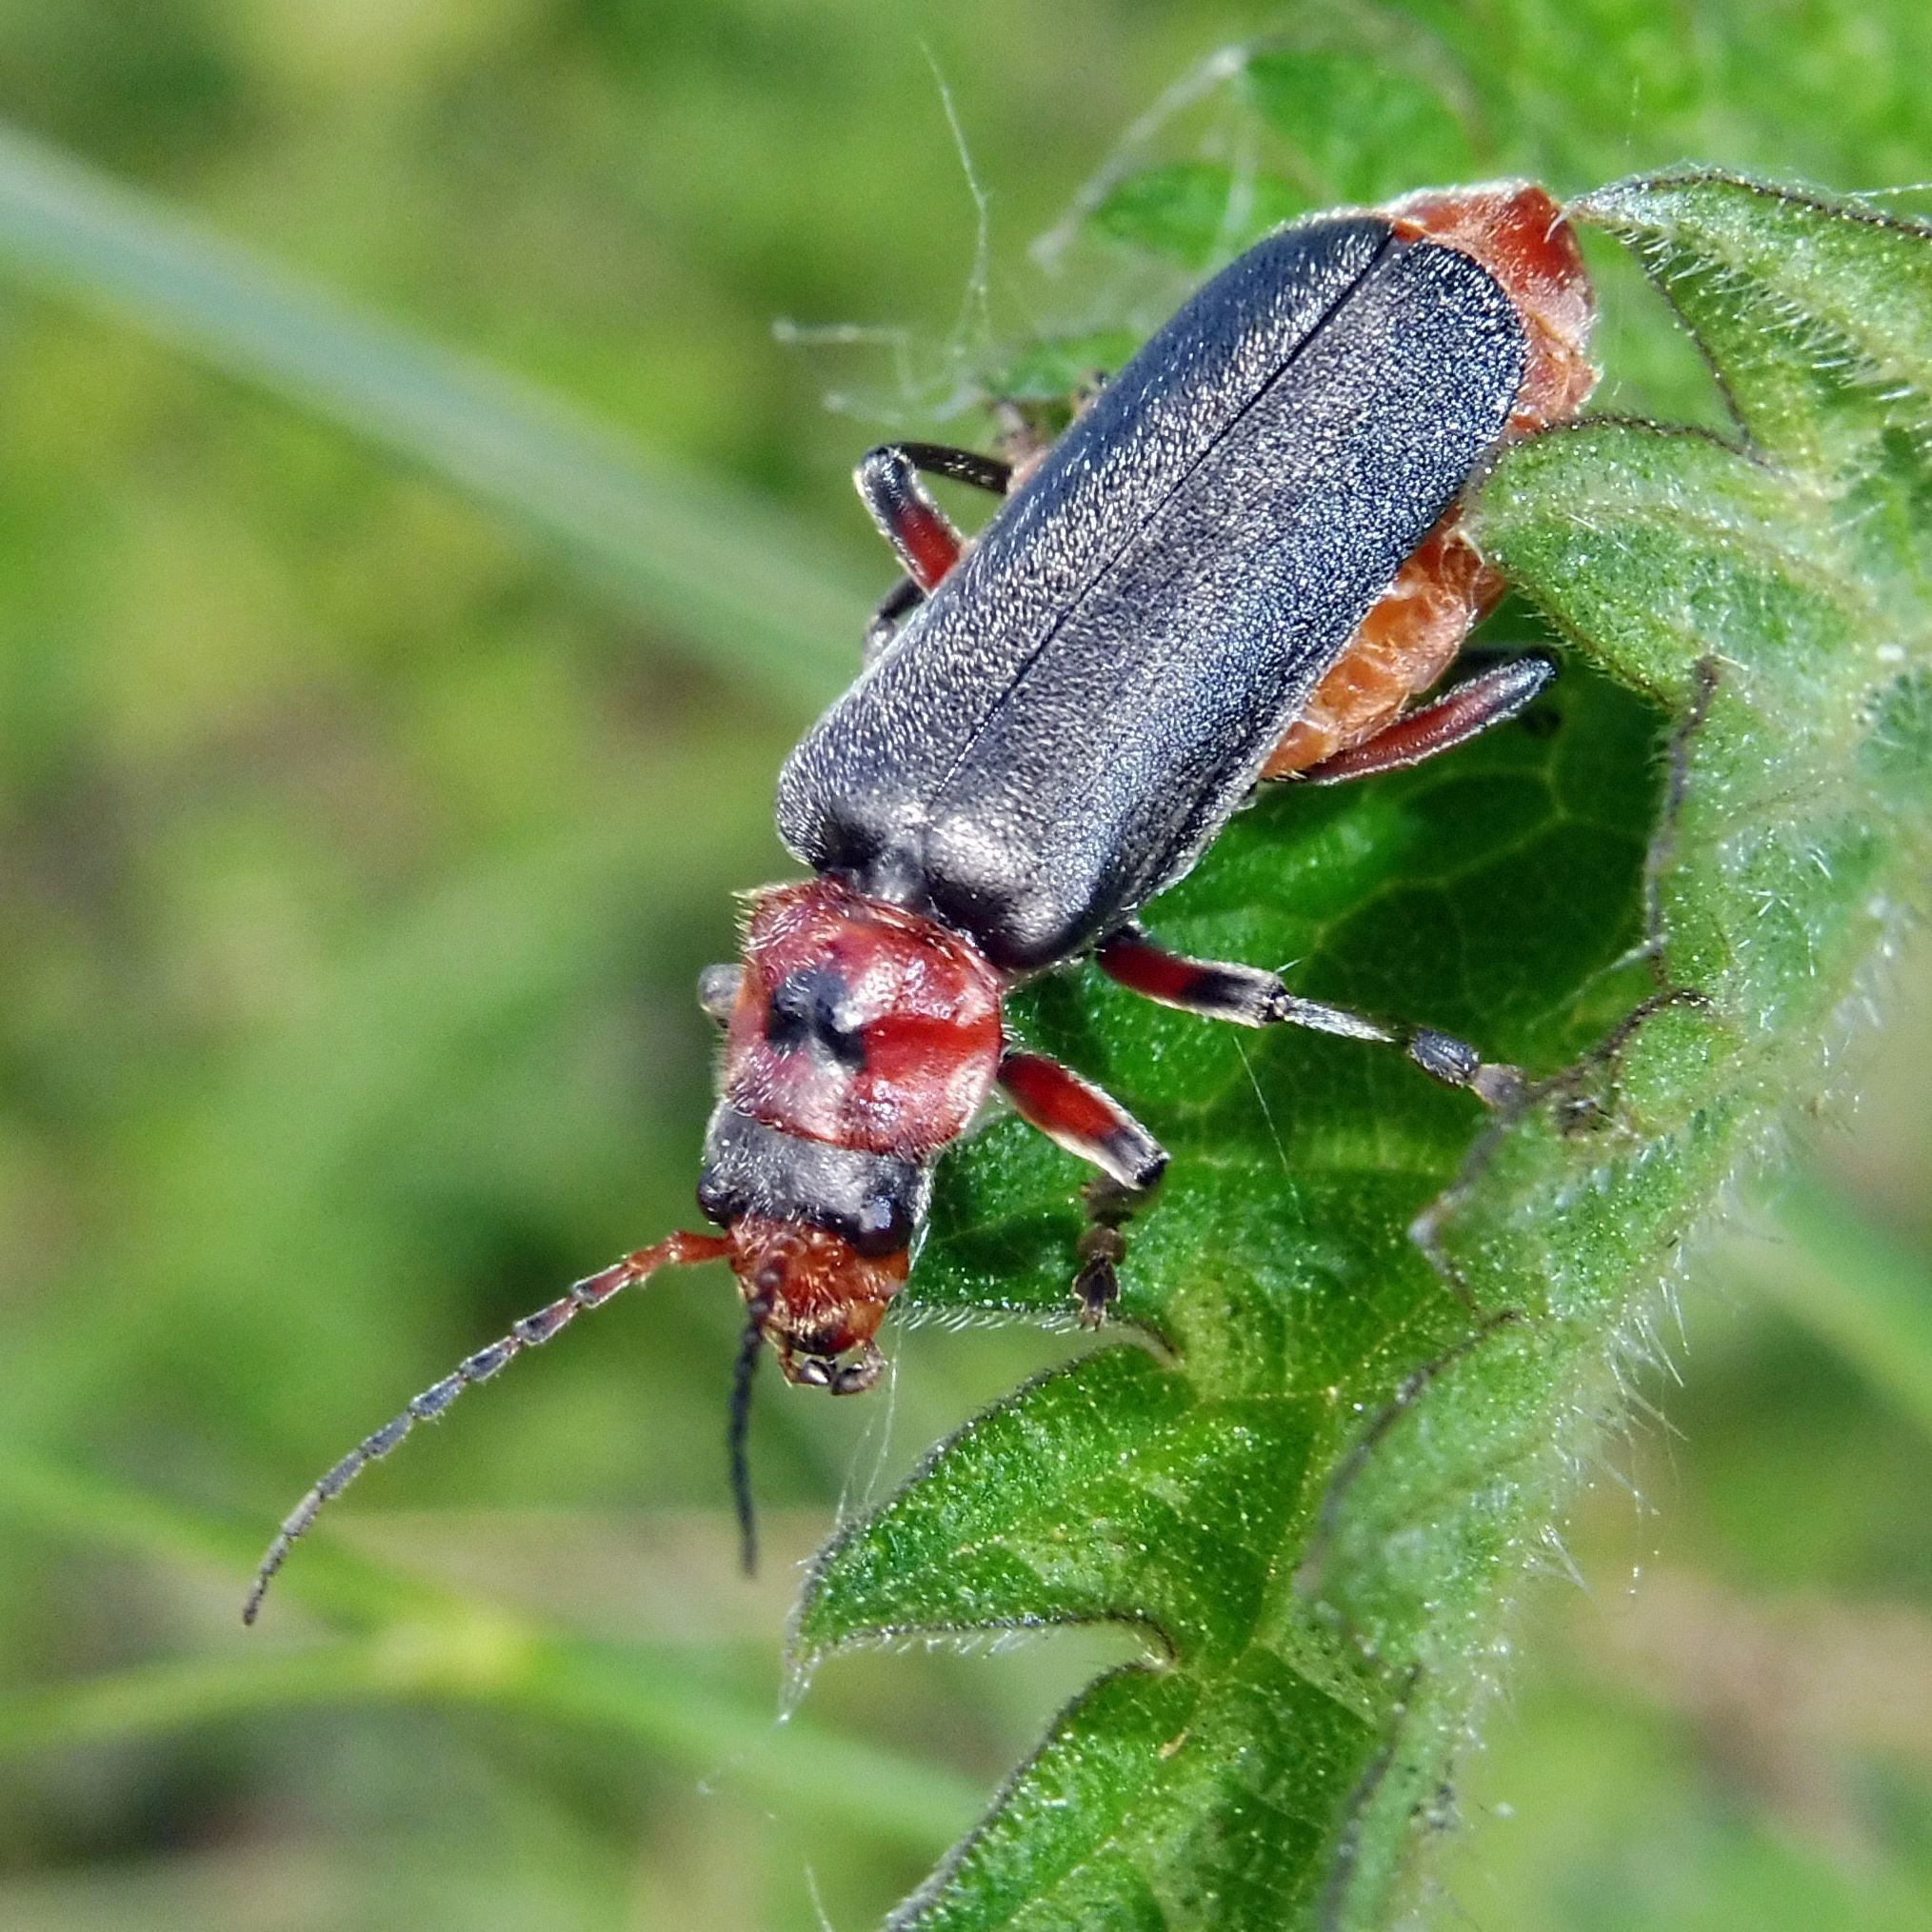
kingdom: Animalia
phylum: Arthropoda
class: Insecta
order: Coleoptera
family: Cantharidae
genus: Cantharis
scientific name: Cantharis rustica
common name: Soldier beetle
